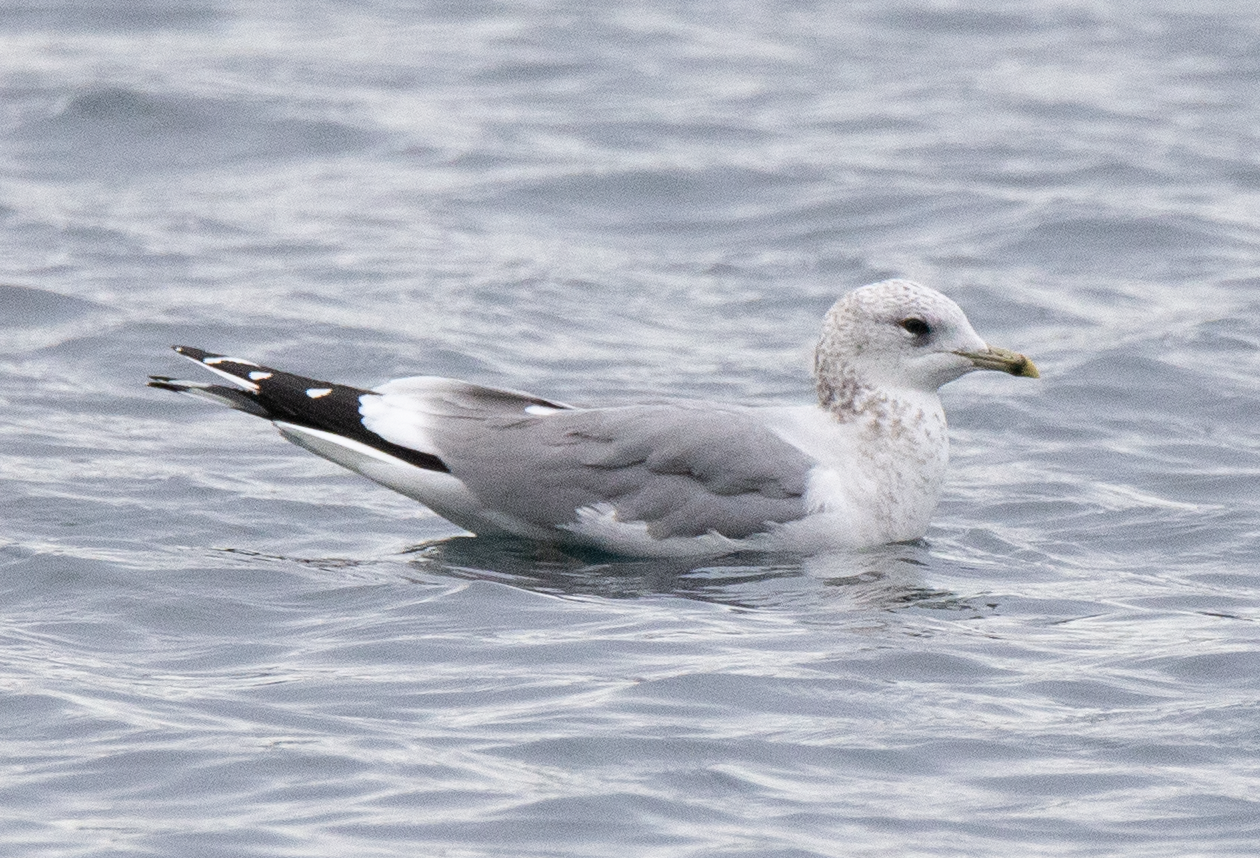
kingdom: Animalia
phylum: Chordata
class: Aves
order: Charadriiformes
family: Laridae
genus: Larus
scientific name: Larus canus
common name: Mew gull
